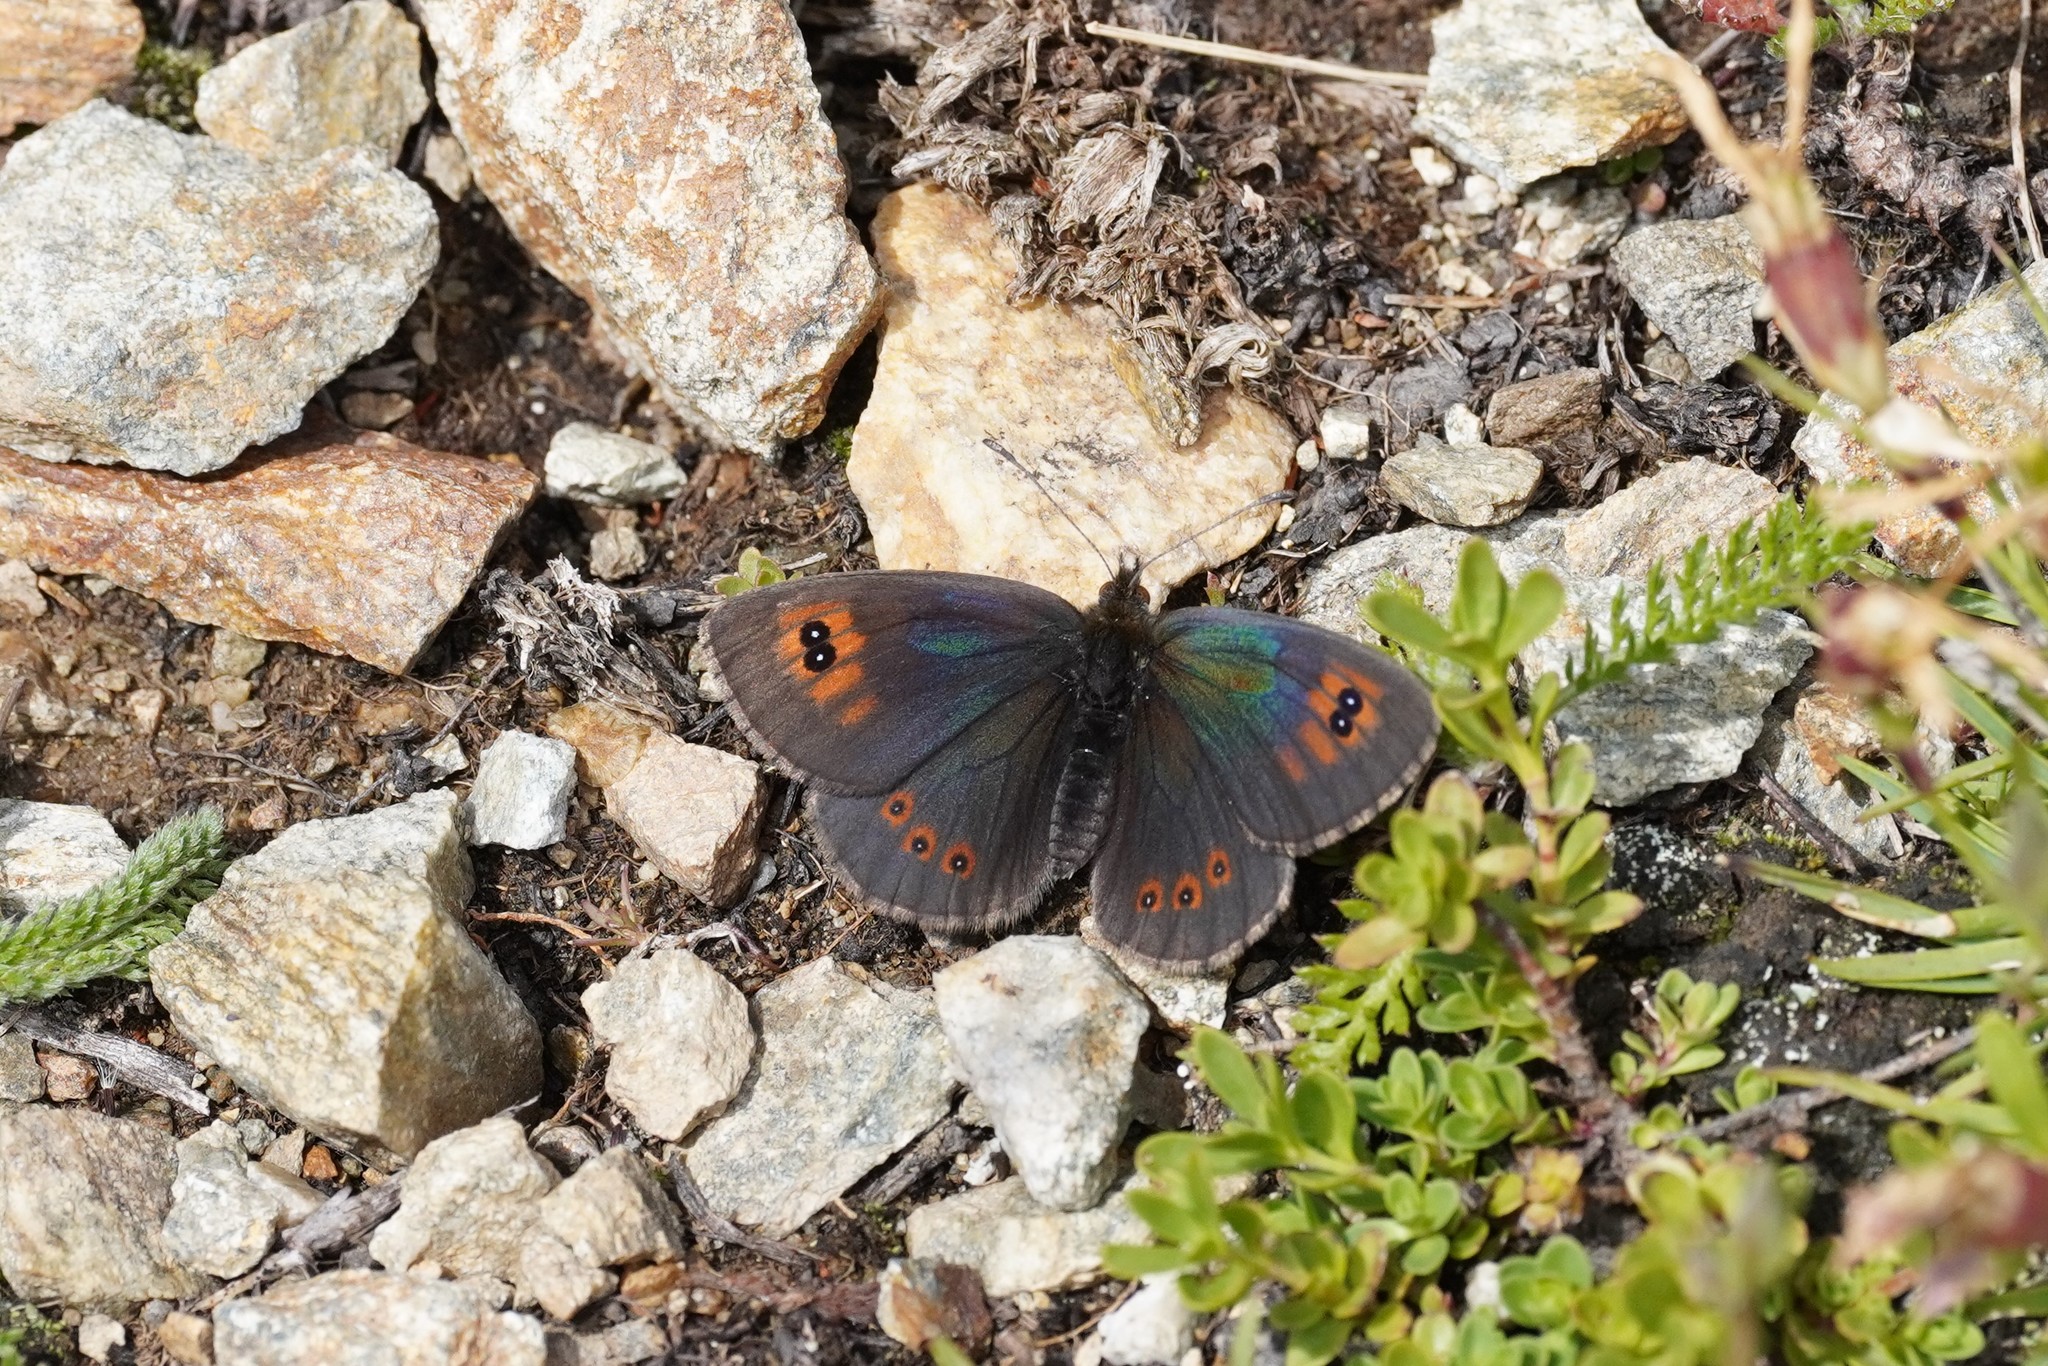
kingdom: Animalia
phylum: Arthropoda
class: Insecta
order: Lepidoptera
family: Nymphalidae
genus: Erebia
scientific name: Erebia cassioides
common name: Common brassy ringlet
